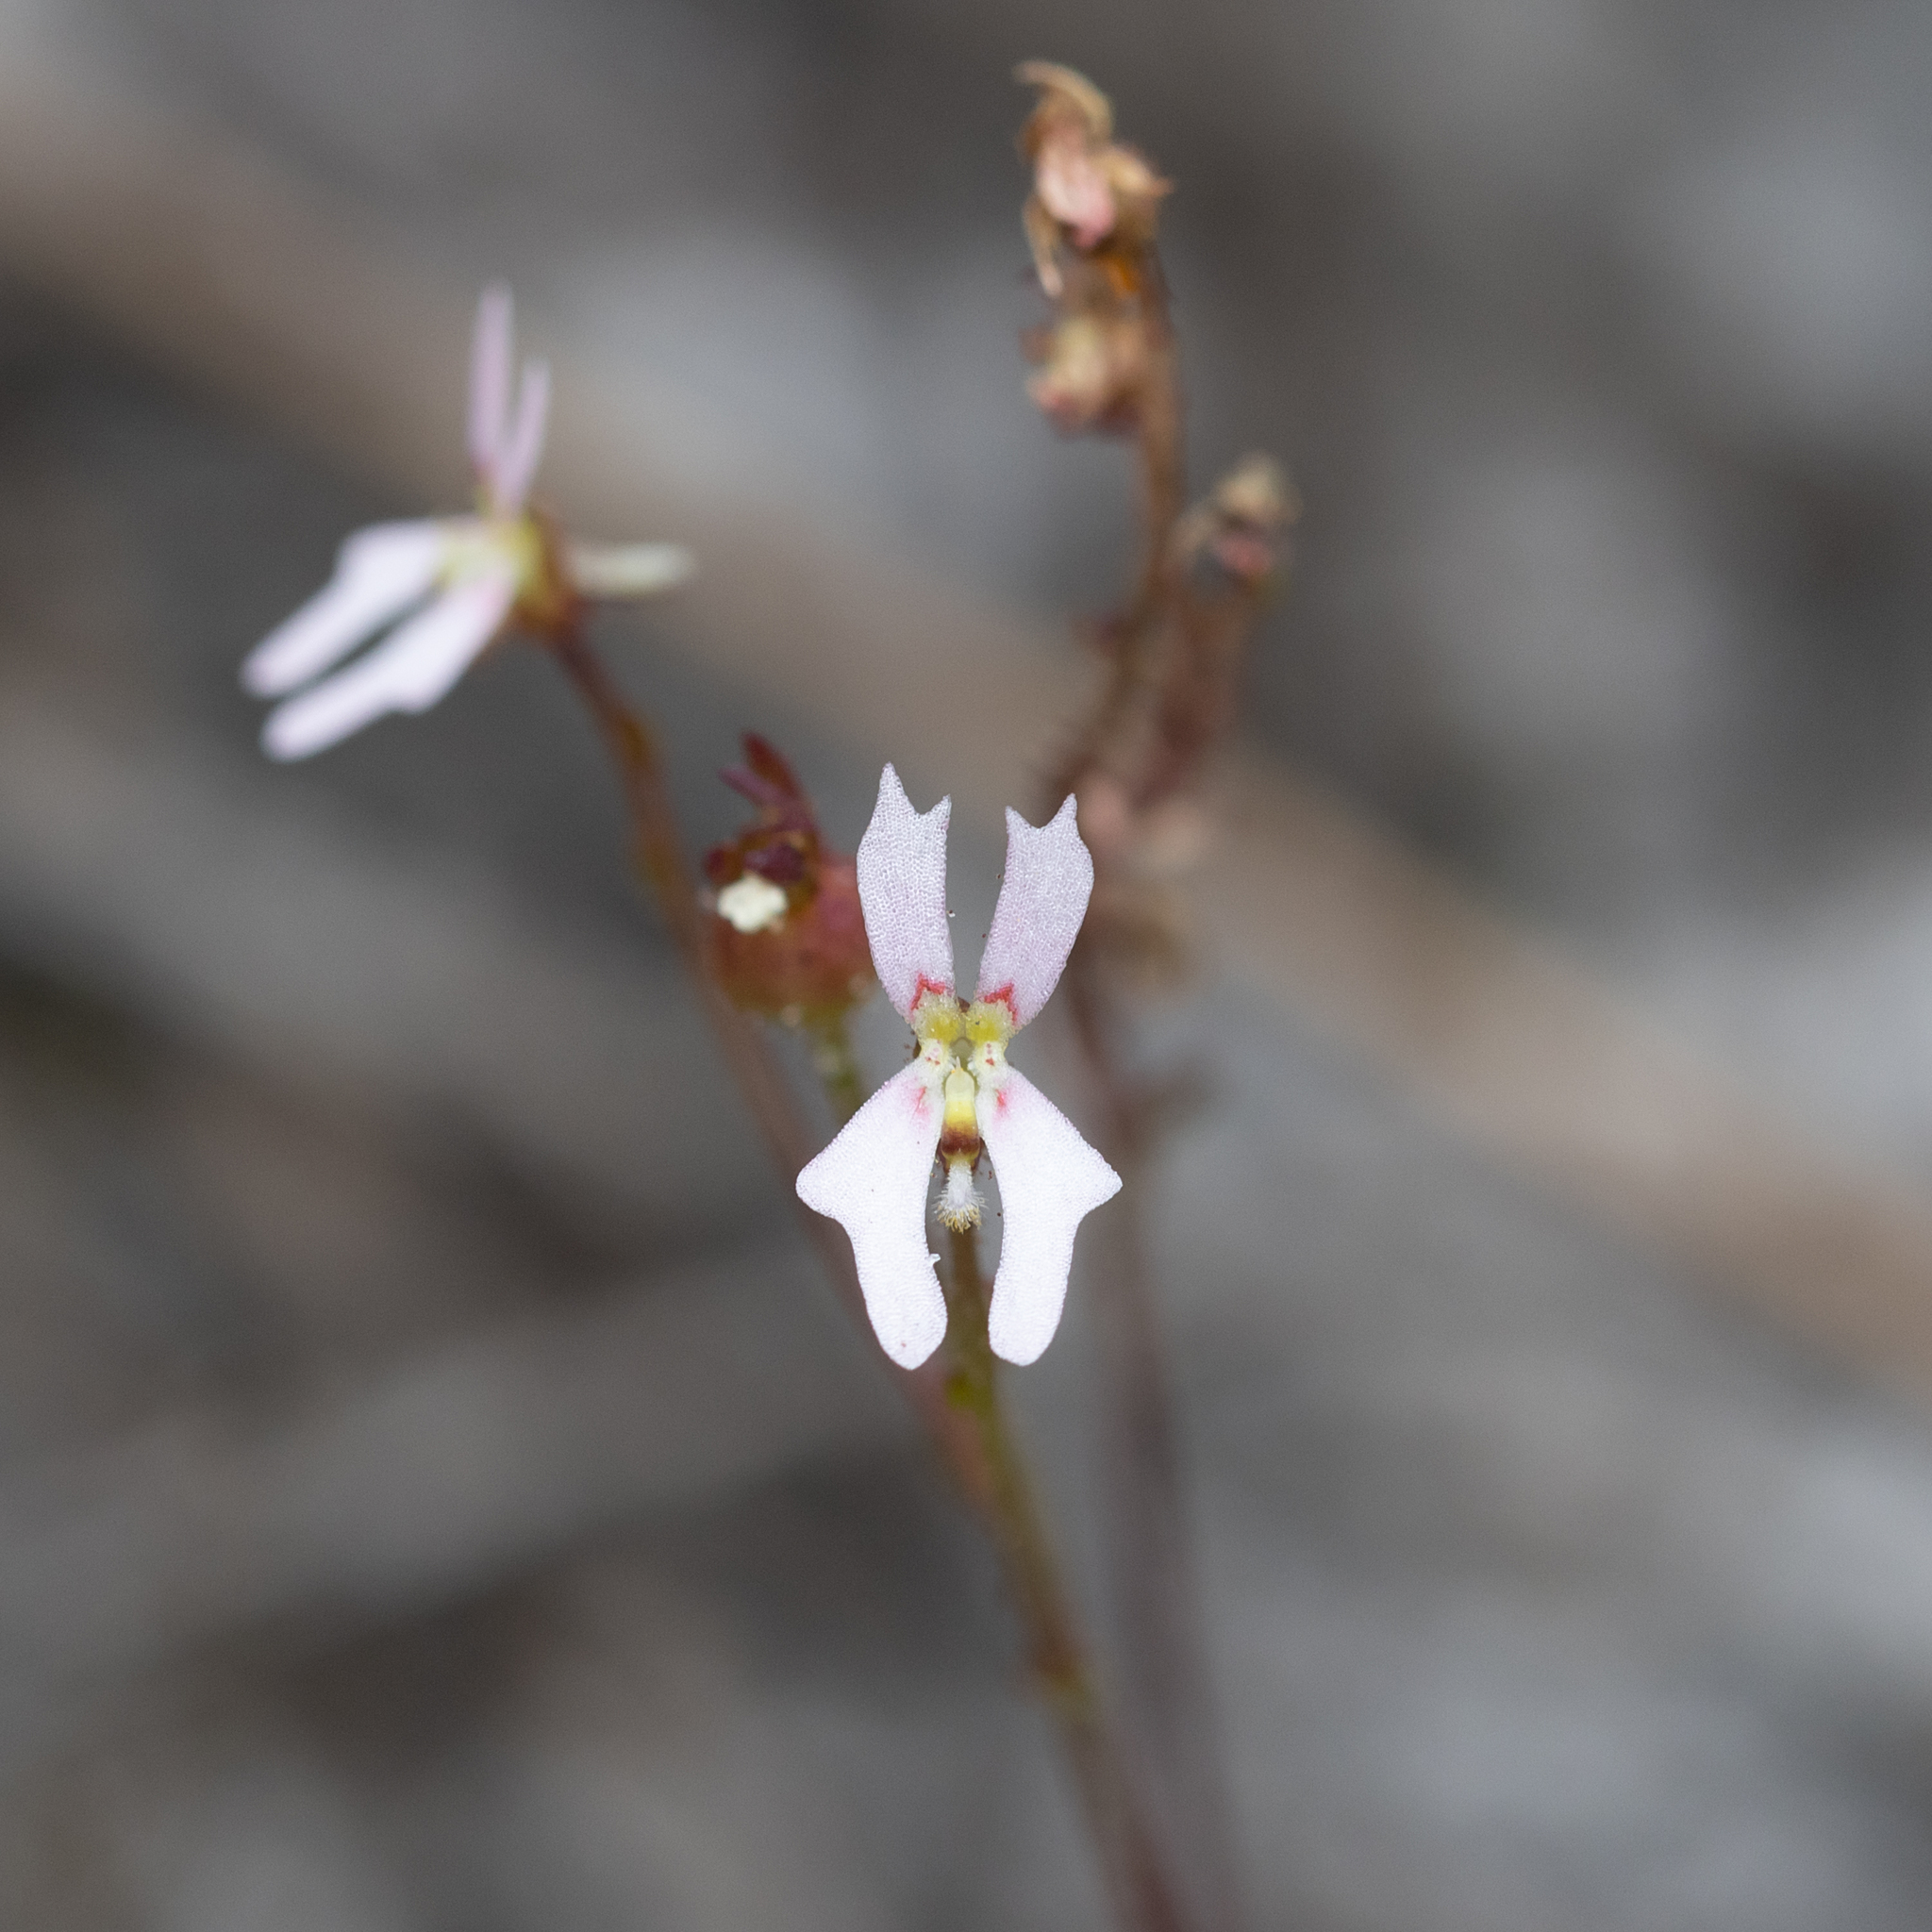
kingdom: Plantae
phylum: Tracheophyta
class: Magnoliopsida
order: Asterales
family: Stylidiaceae
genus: Stylidium
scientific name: Stylidium calcaratum
